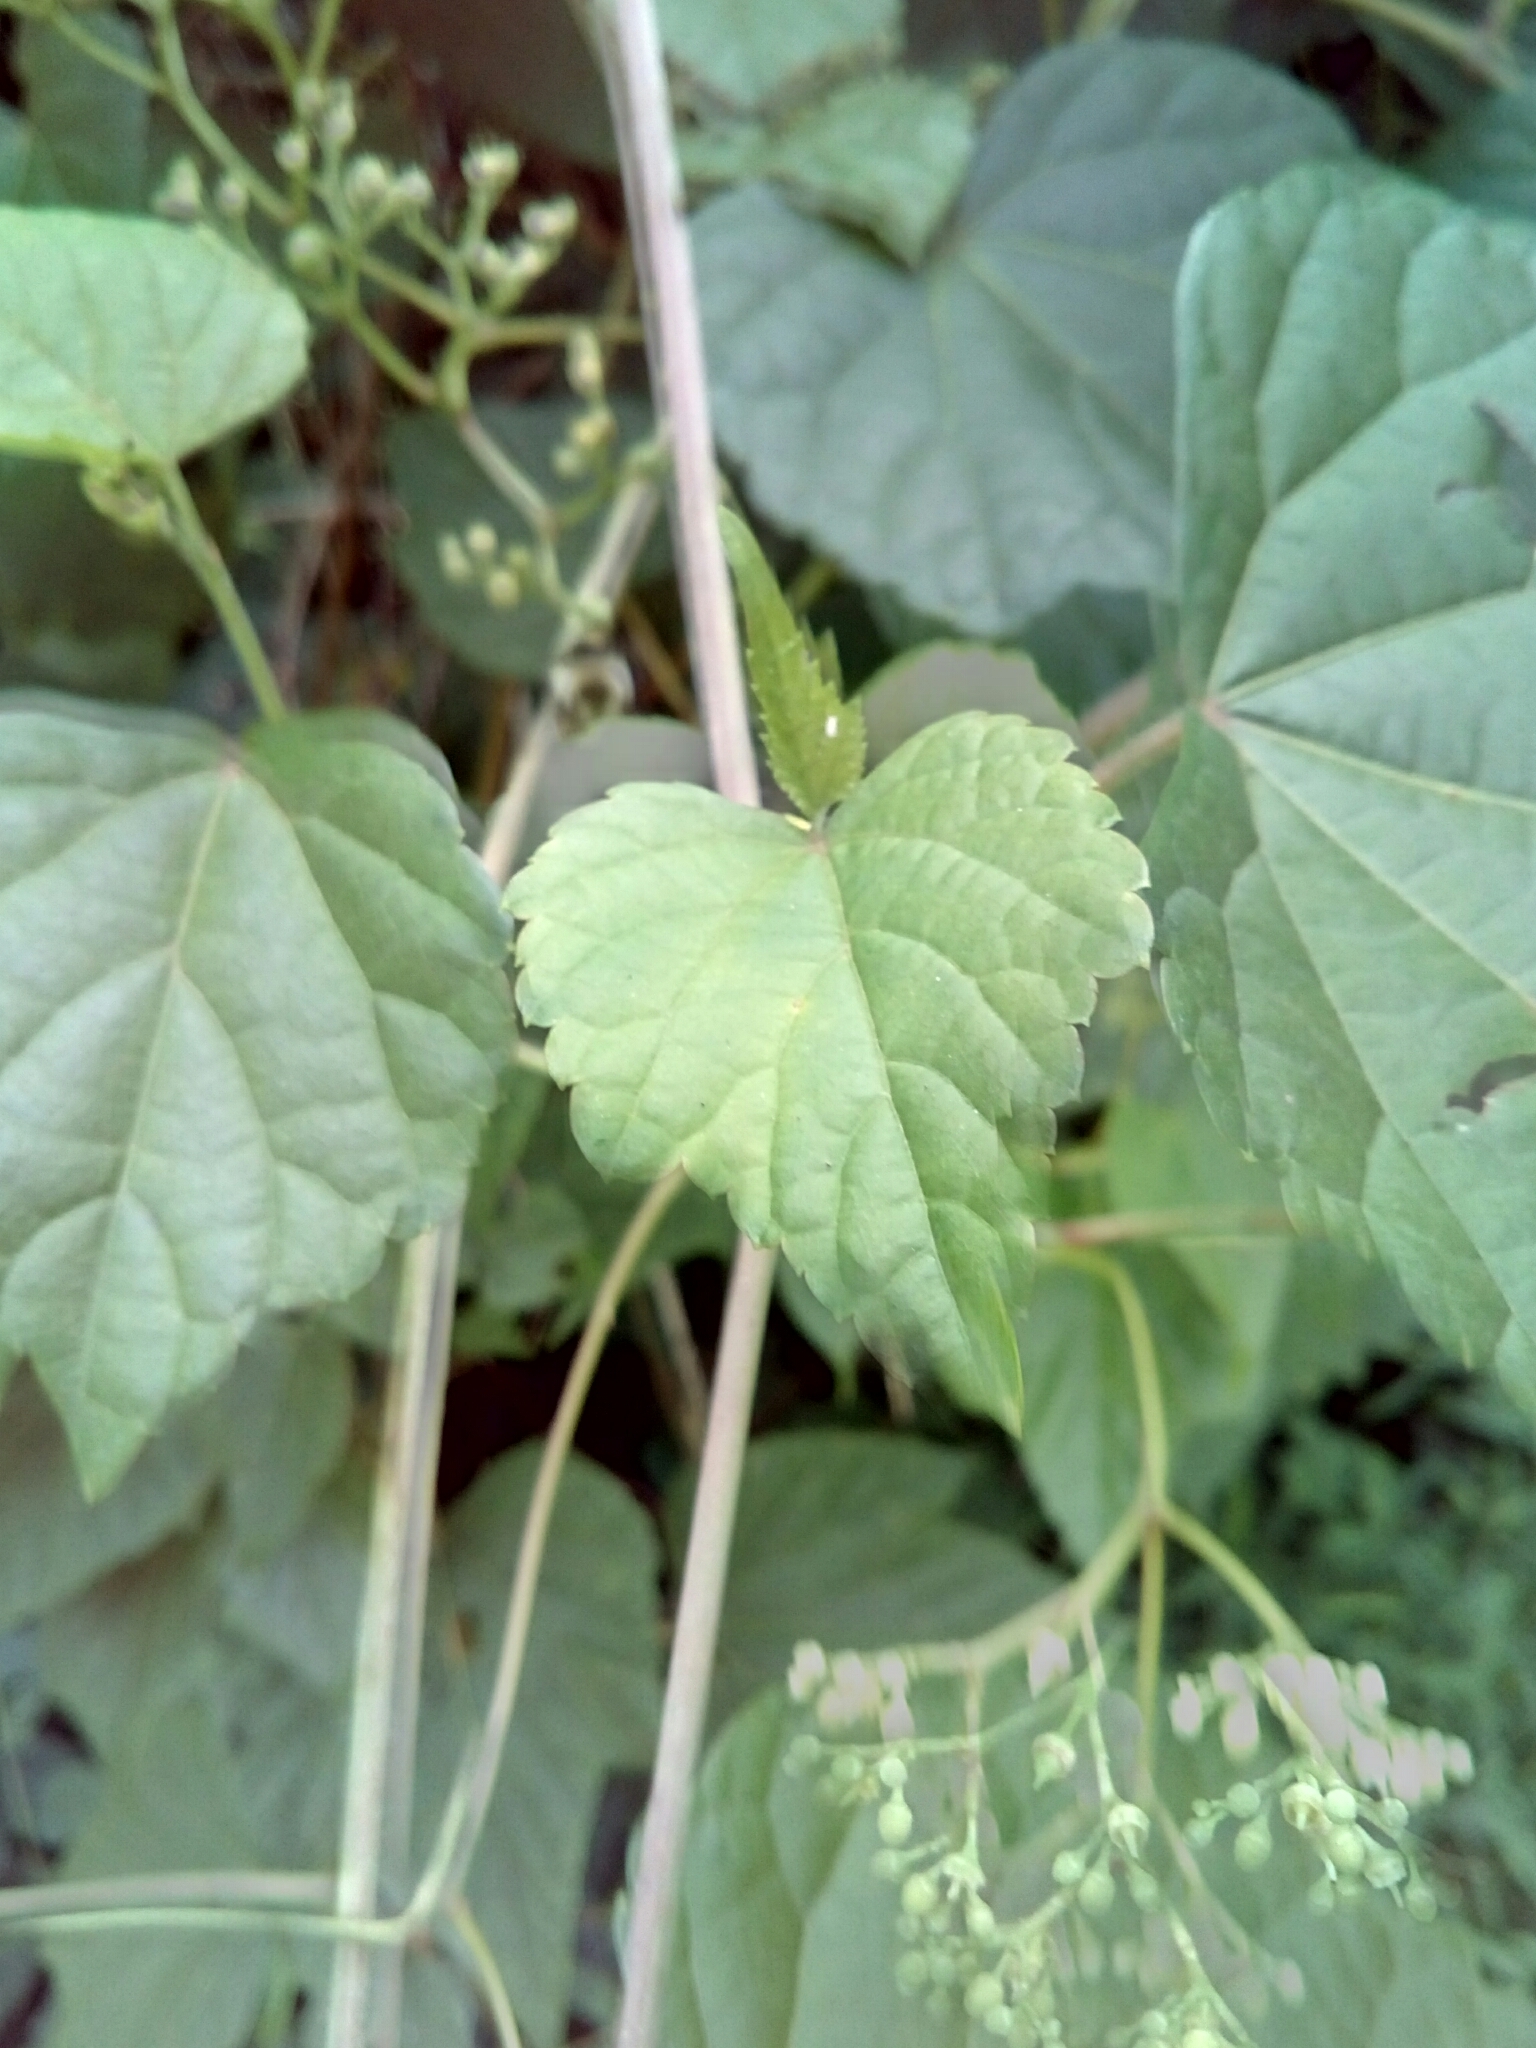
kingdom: Plantae
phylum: Tracheophyta
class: Magnoliopsida
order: Vitales
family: Vitaceae
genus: Ampelopsis
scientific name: Ampelopsis glandulosa
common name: Amur peppervine
